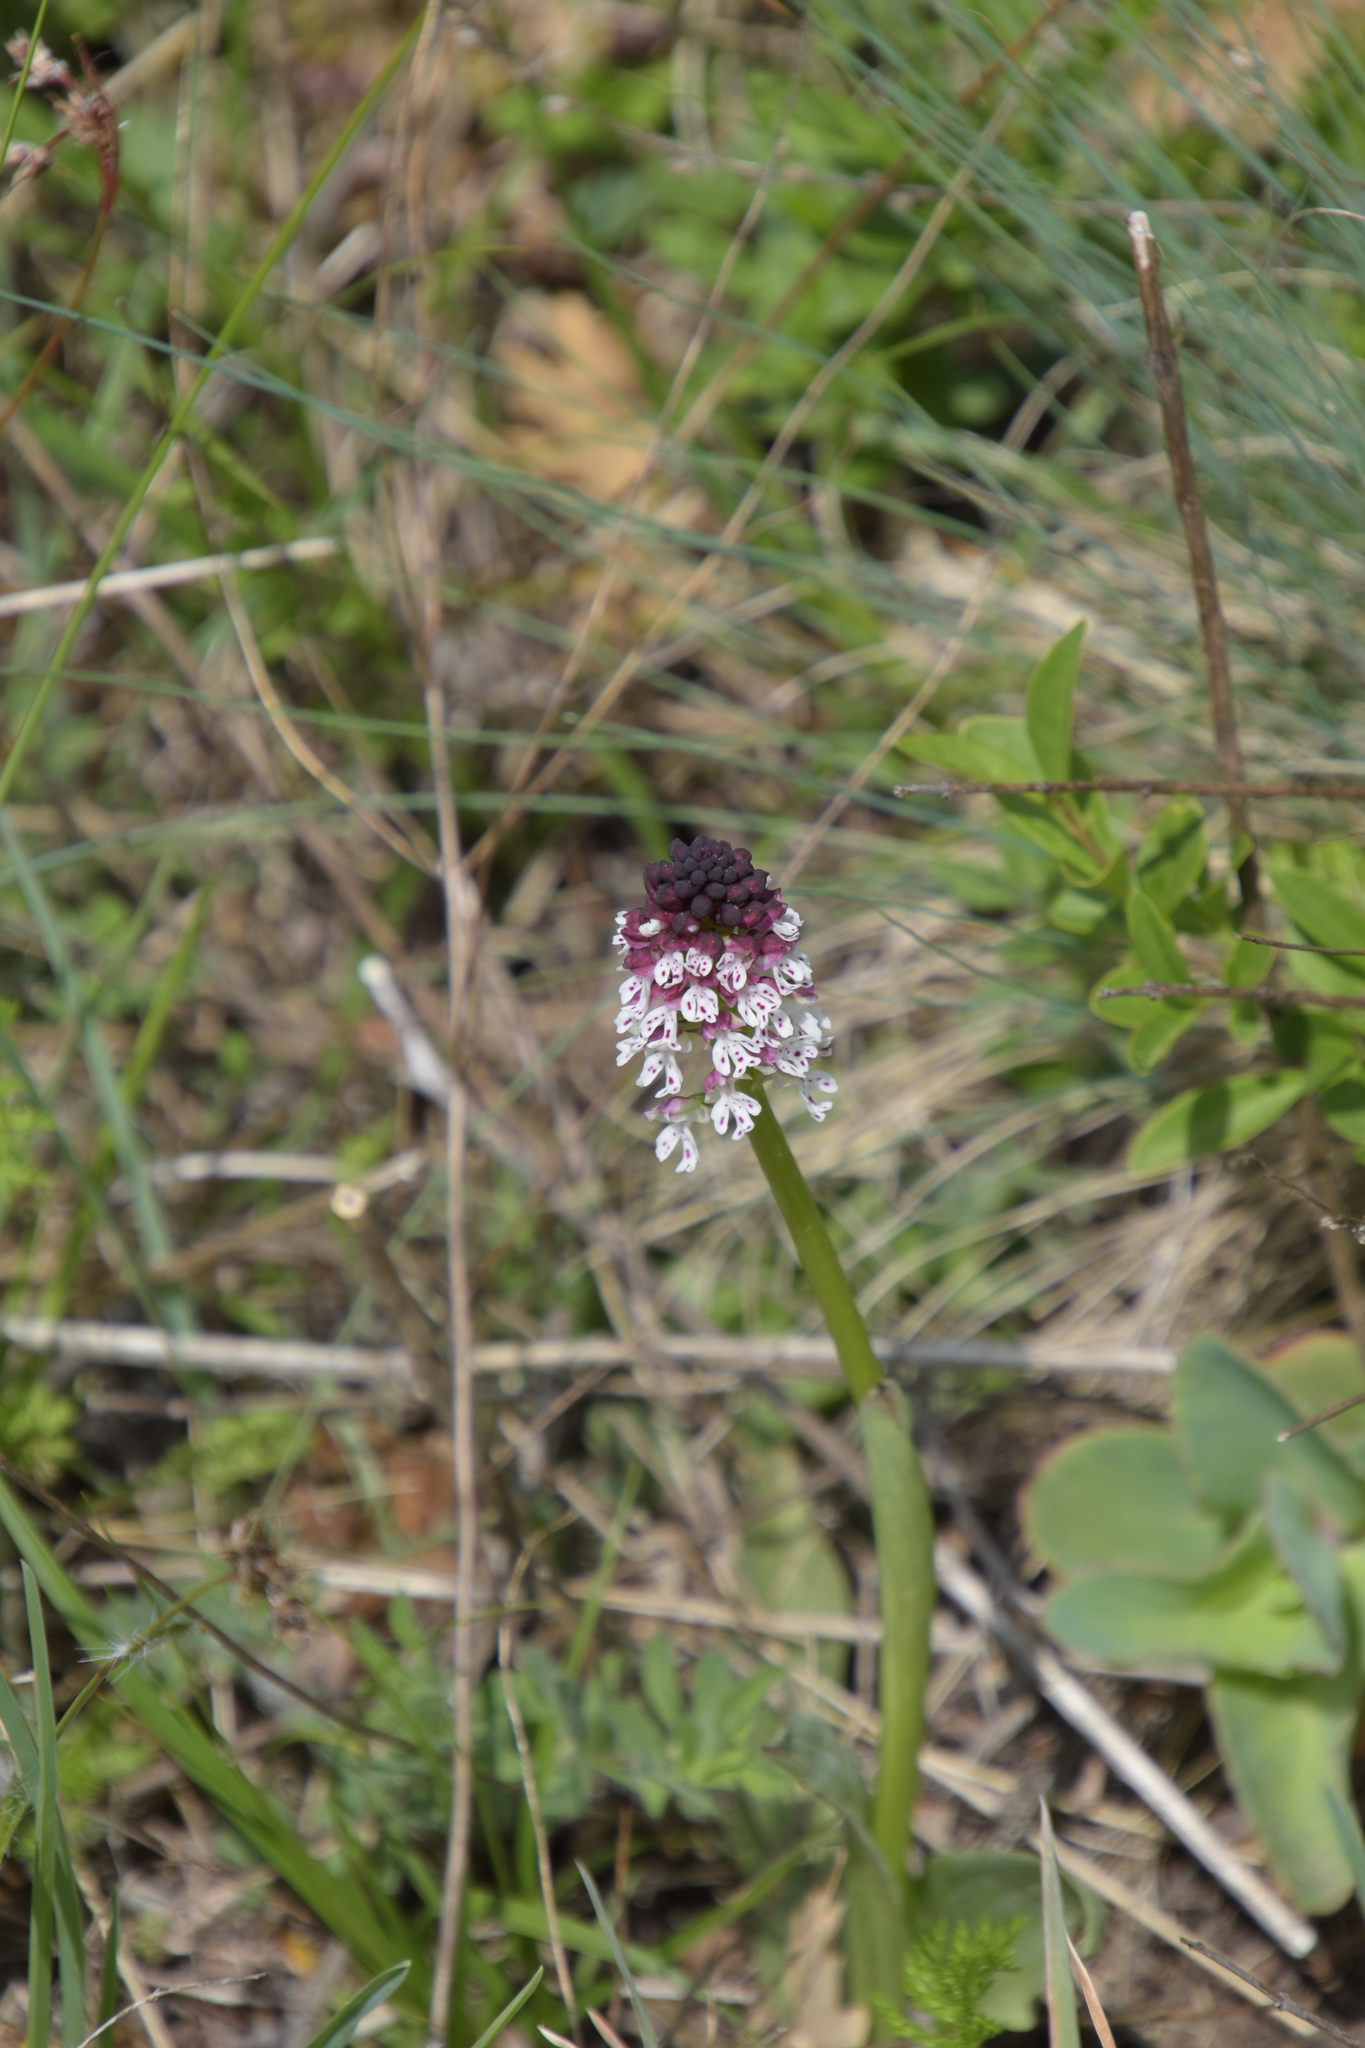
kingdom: Plantae
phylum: Tracheophyta
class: Liliopsida
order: Asparagales
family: Orchidaceae
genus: Neotinea
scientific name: Neotinea ustulata
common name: Burnt orchid
